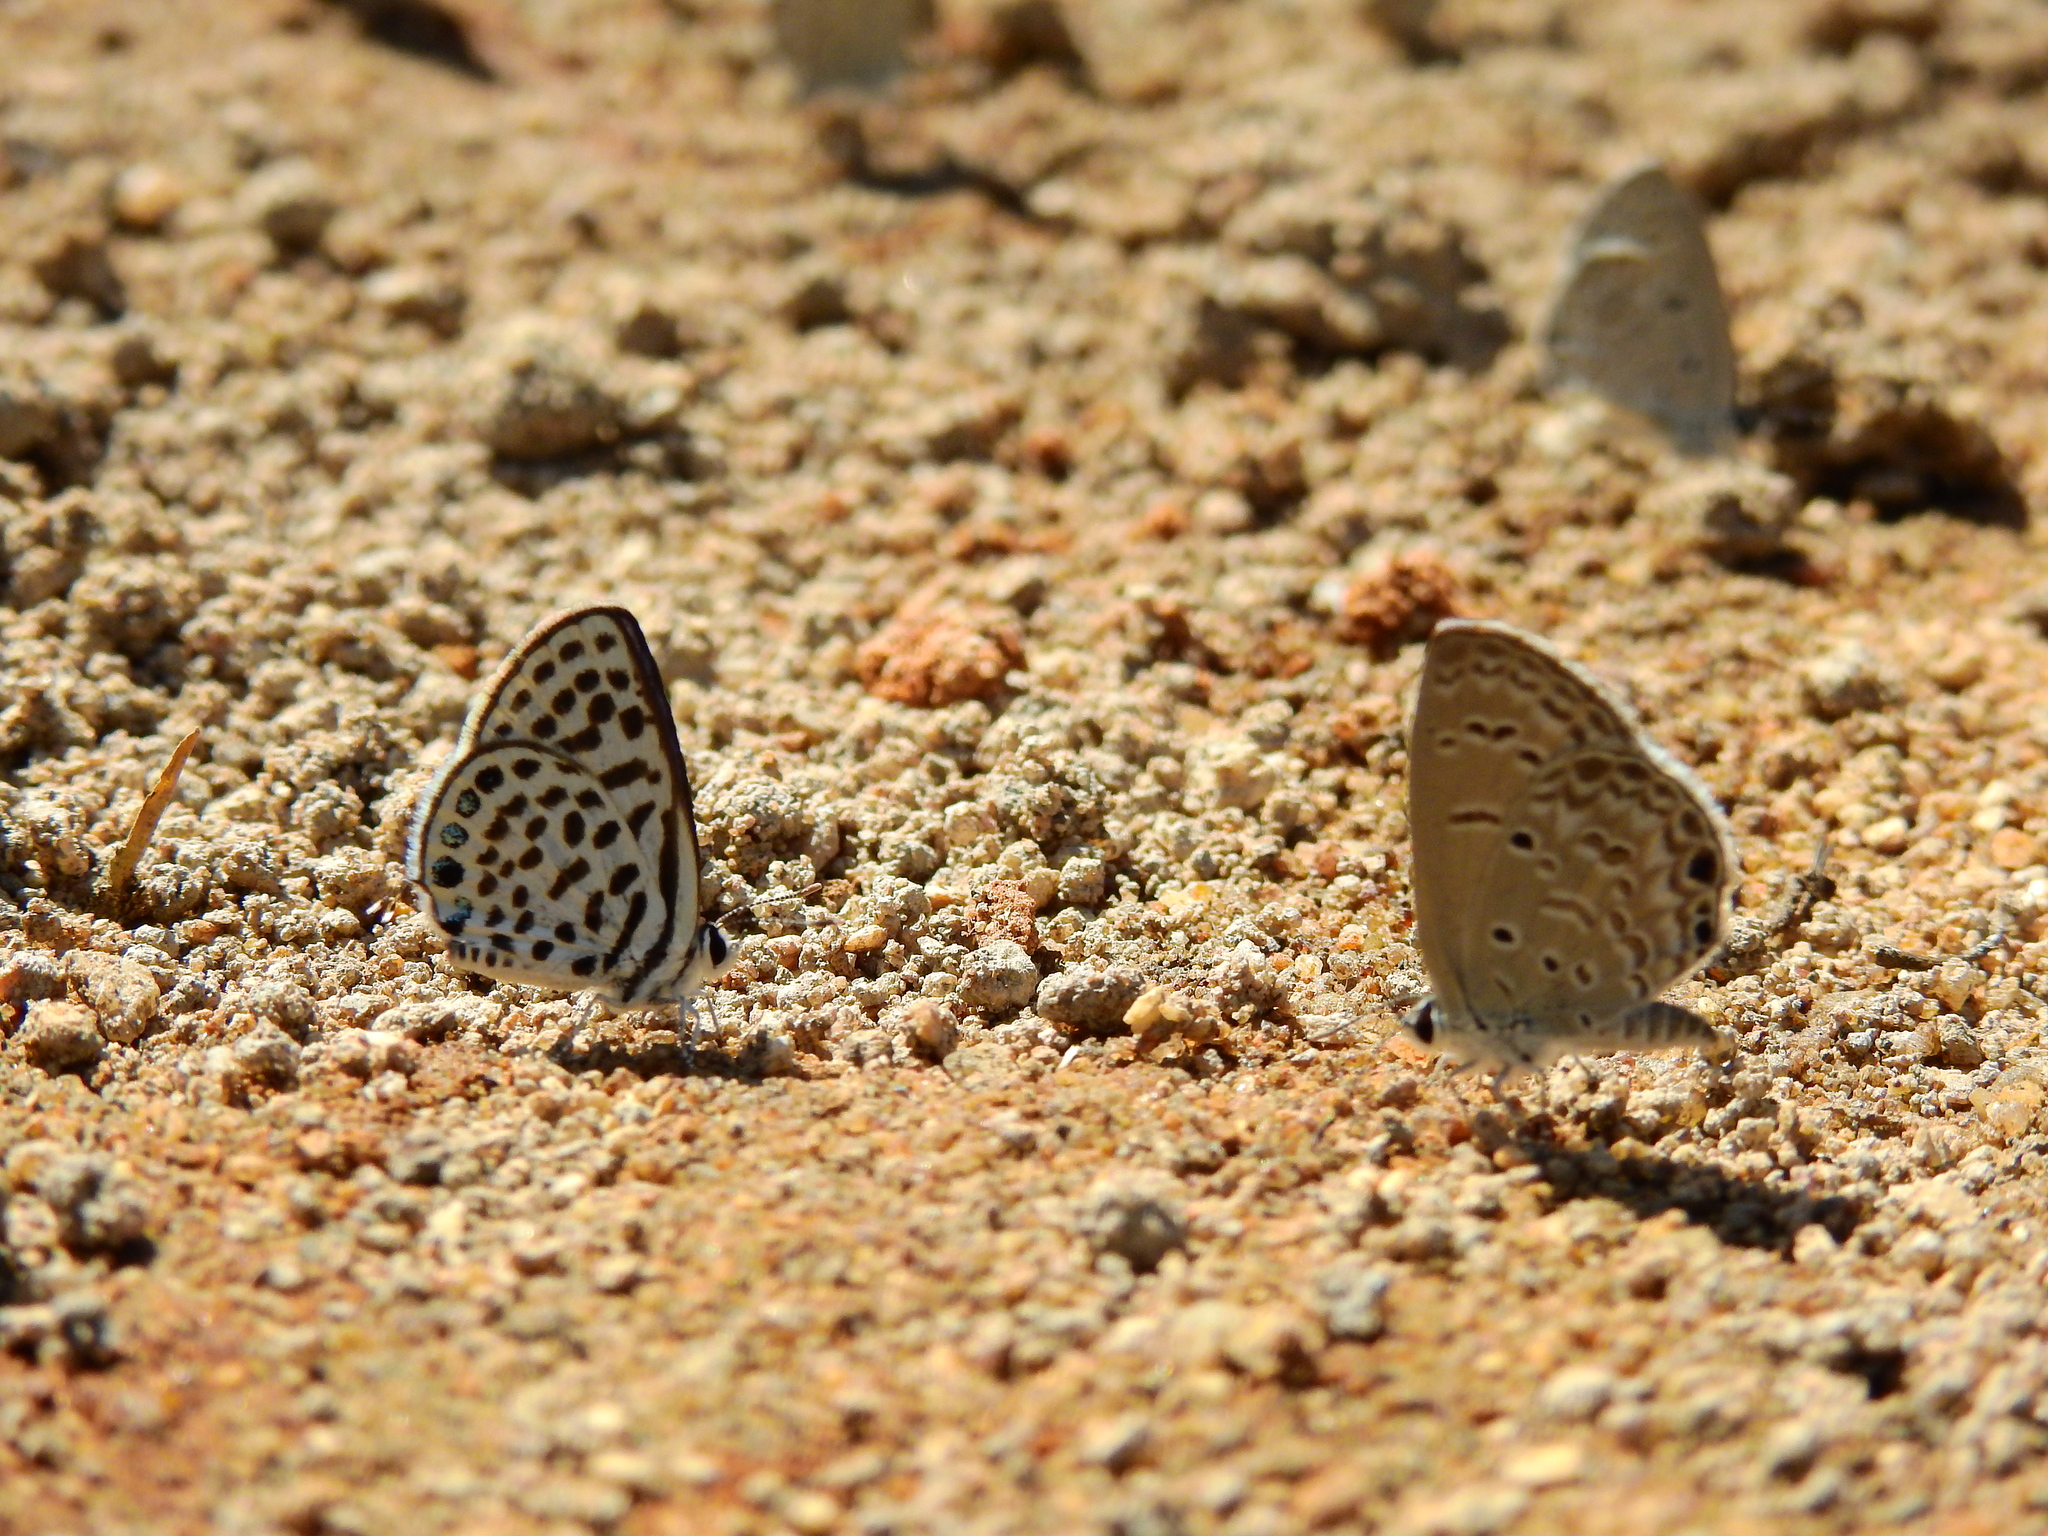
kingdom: Animalia
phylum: Arthropoda
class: Insecta
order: Lepidoptera
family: Lycaenidae
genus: Tarucus
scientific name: Tarucus callinara
